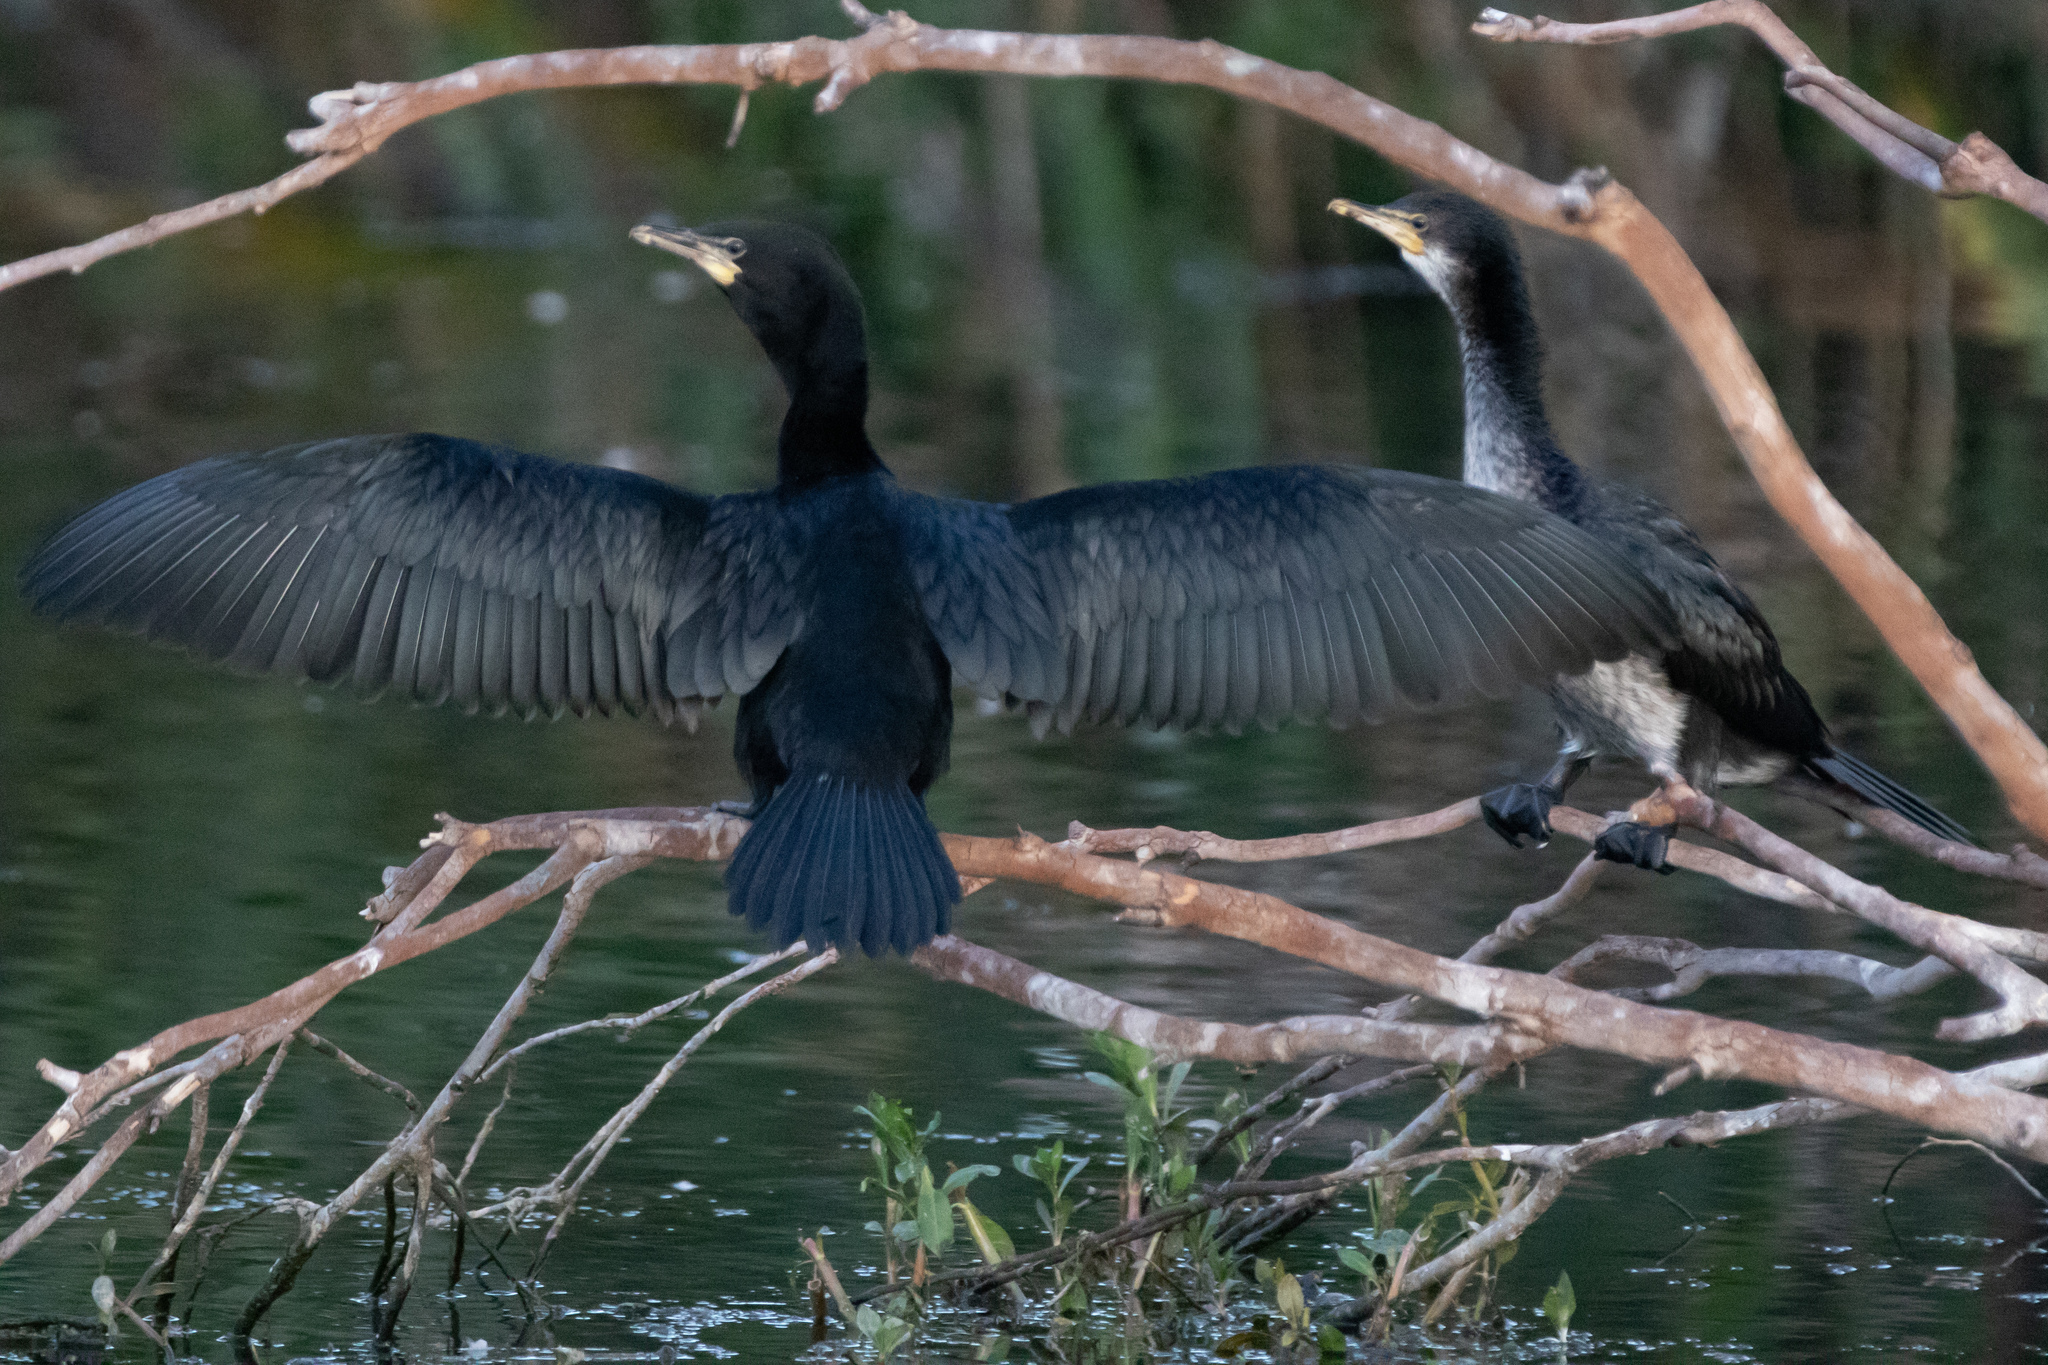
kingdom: Animalia
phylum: Chordata
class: Aves
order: Suliformes
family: Phalacrocoracidae
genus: Microcarbo
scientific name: Microcarbo melanoleucos
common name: Little pied cormorant
